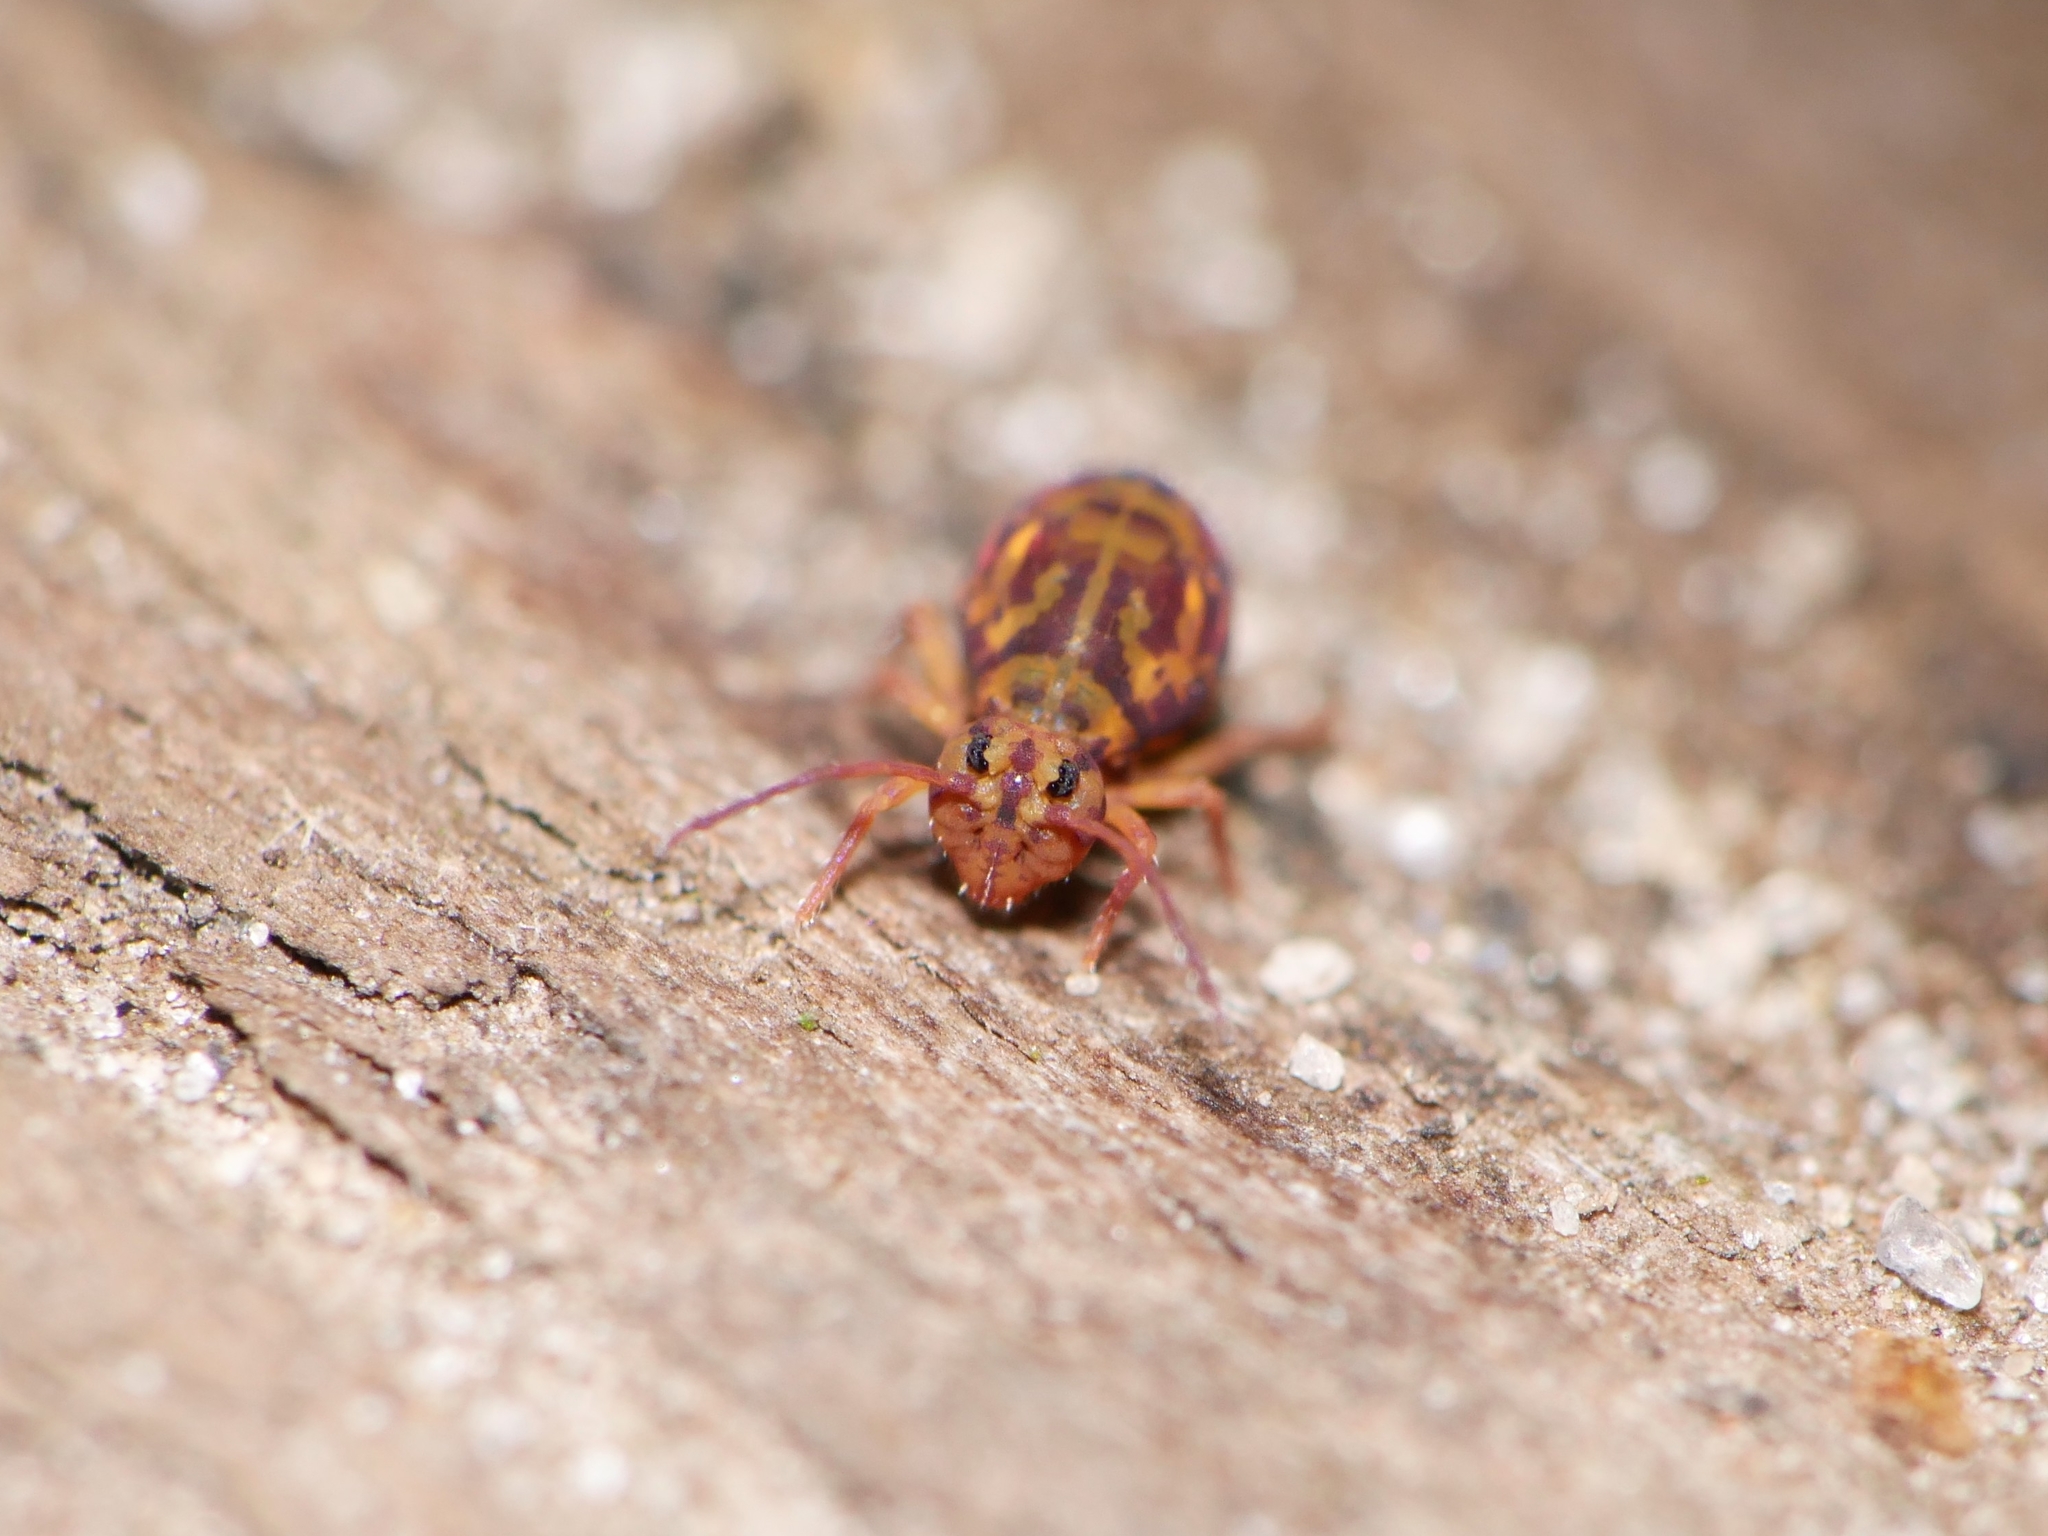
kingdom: Animalia
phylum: Arthropoda
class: Collembola
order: Symphypleona
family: Dicyrtomidae
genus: Dicyrtomina
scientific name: Dicyrtomina ornata
